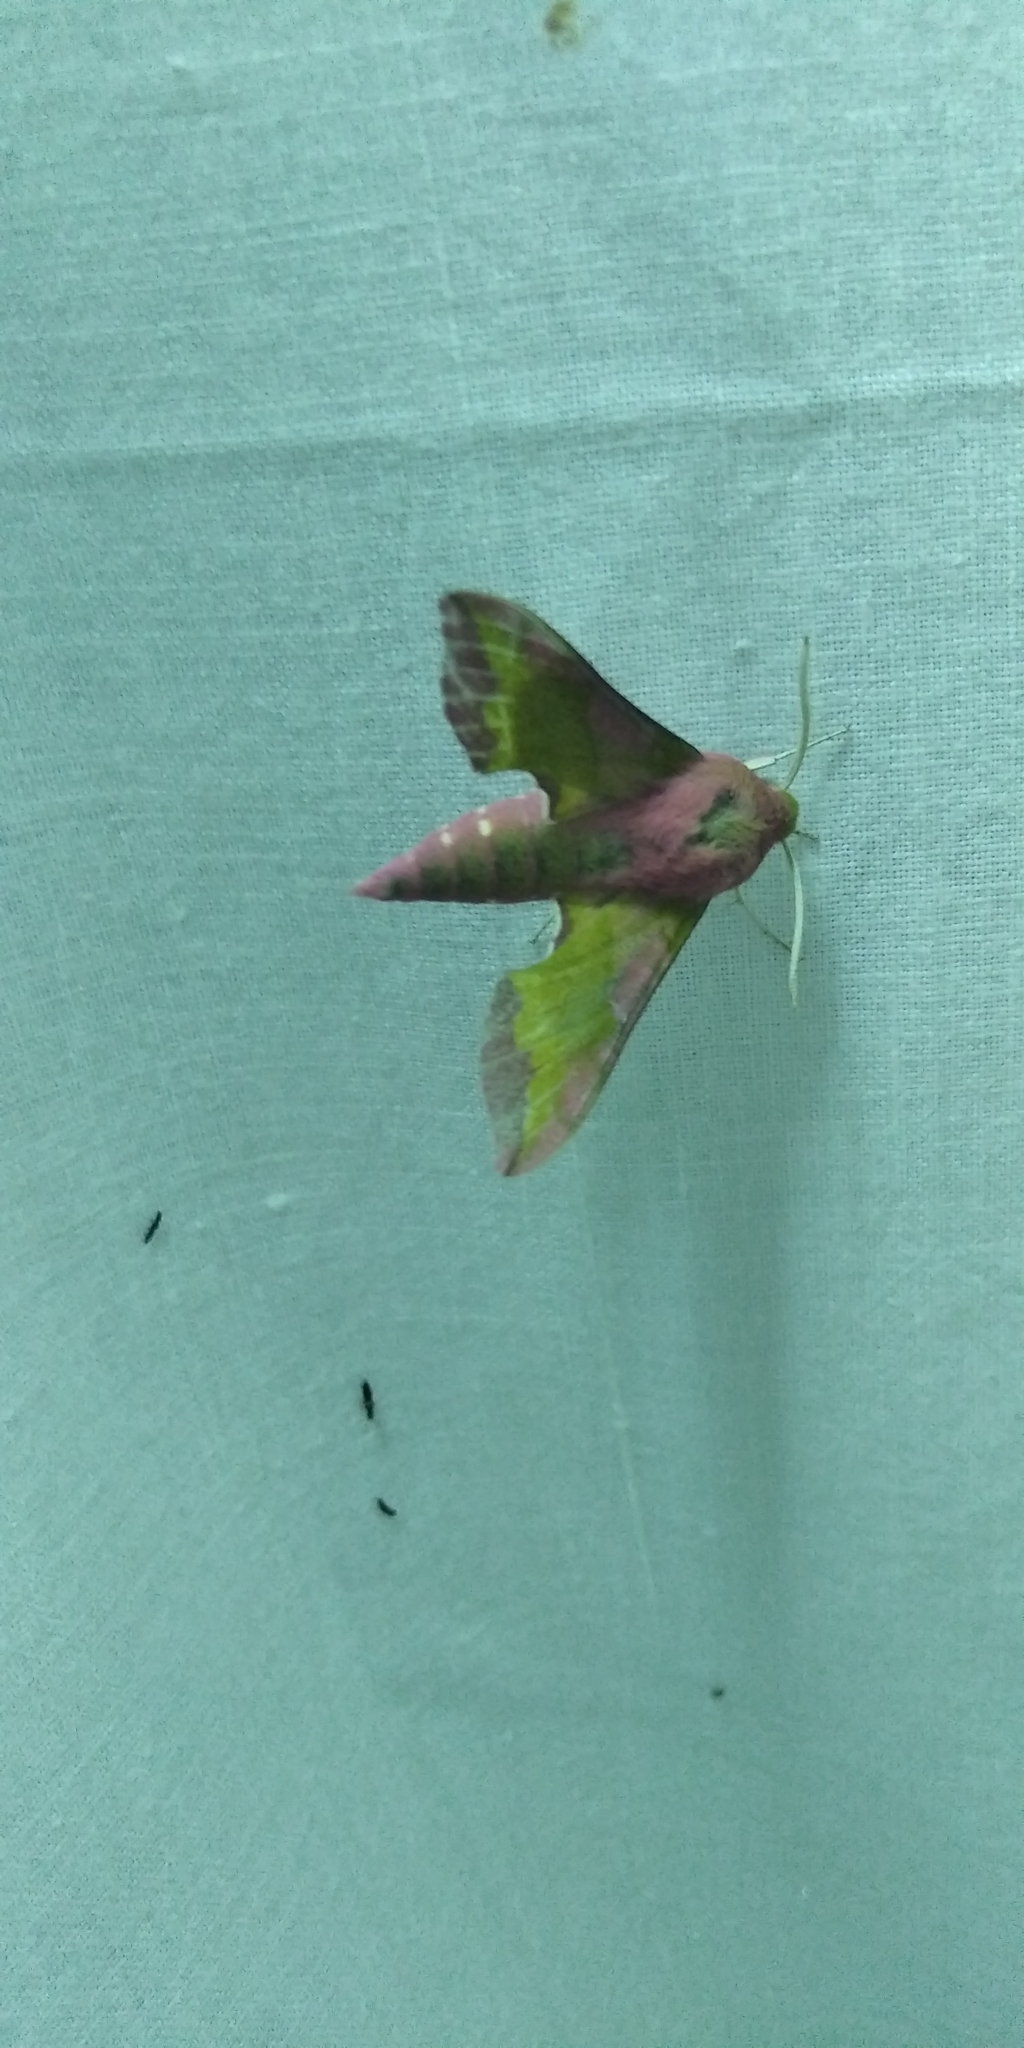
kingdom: Animalia
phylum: Arthropoda
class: Insecta
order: Lepidoptera
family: Sphingidae
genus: Deilephila
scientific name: Deilephila porcellus
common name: Small elephant hawk-moth
